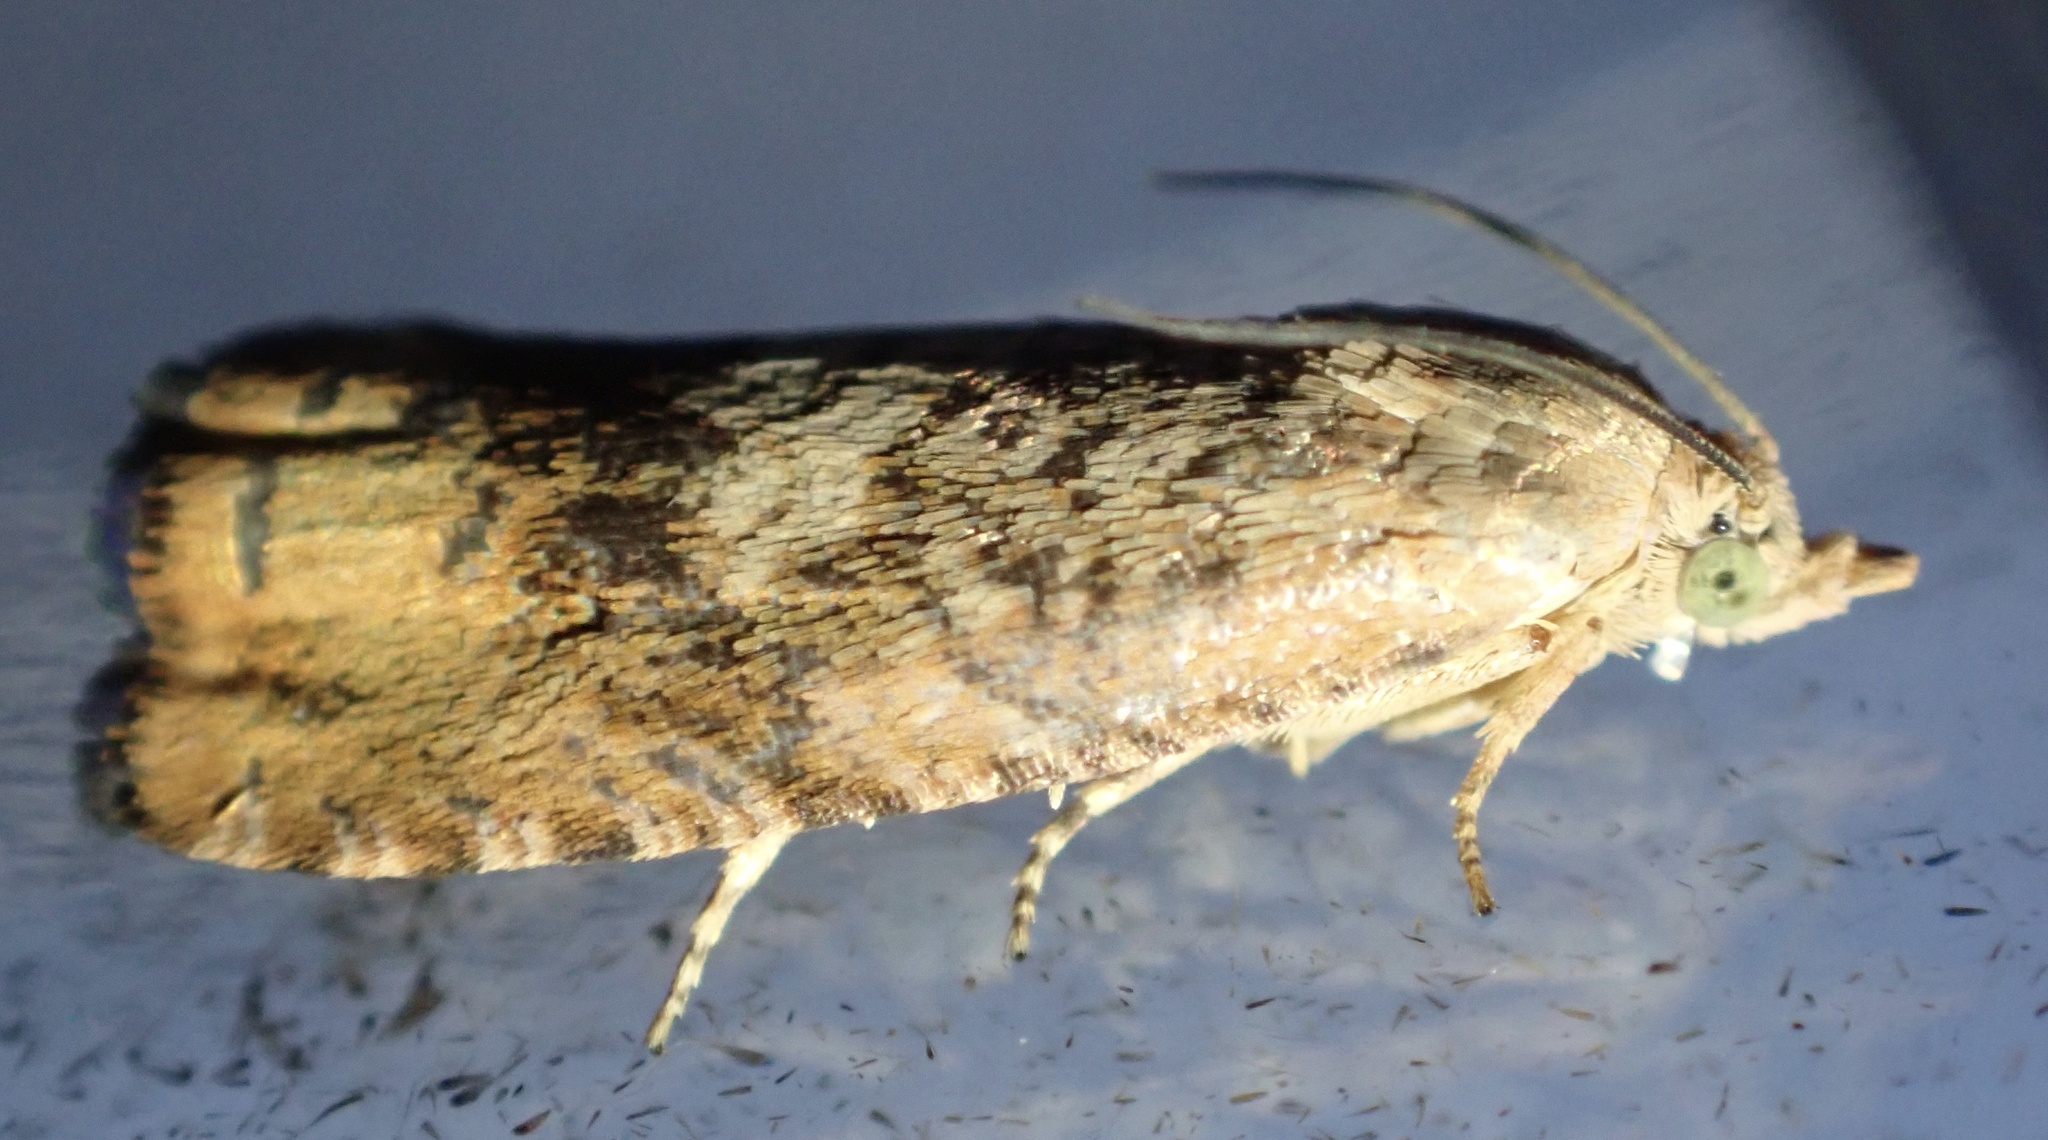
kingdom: Animalia
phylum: Arthropoda
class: Insecta
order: Lepidoptera
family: Tortricidae
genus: Cydia
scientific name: Cydia amplana
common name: Vagrant piercer
